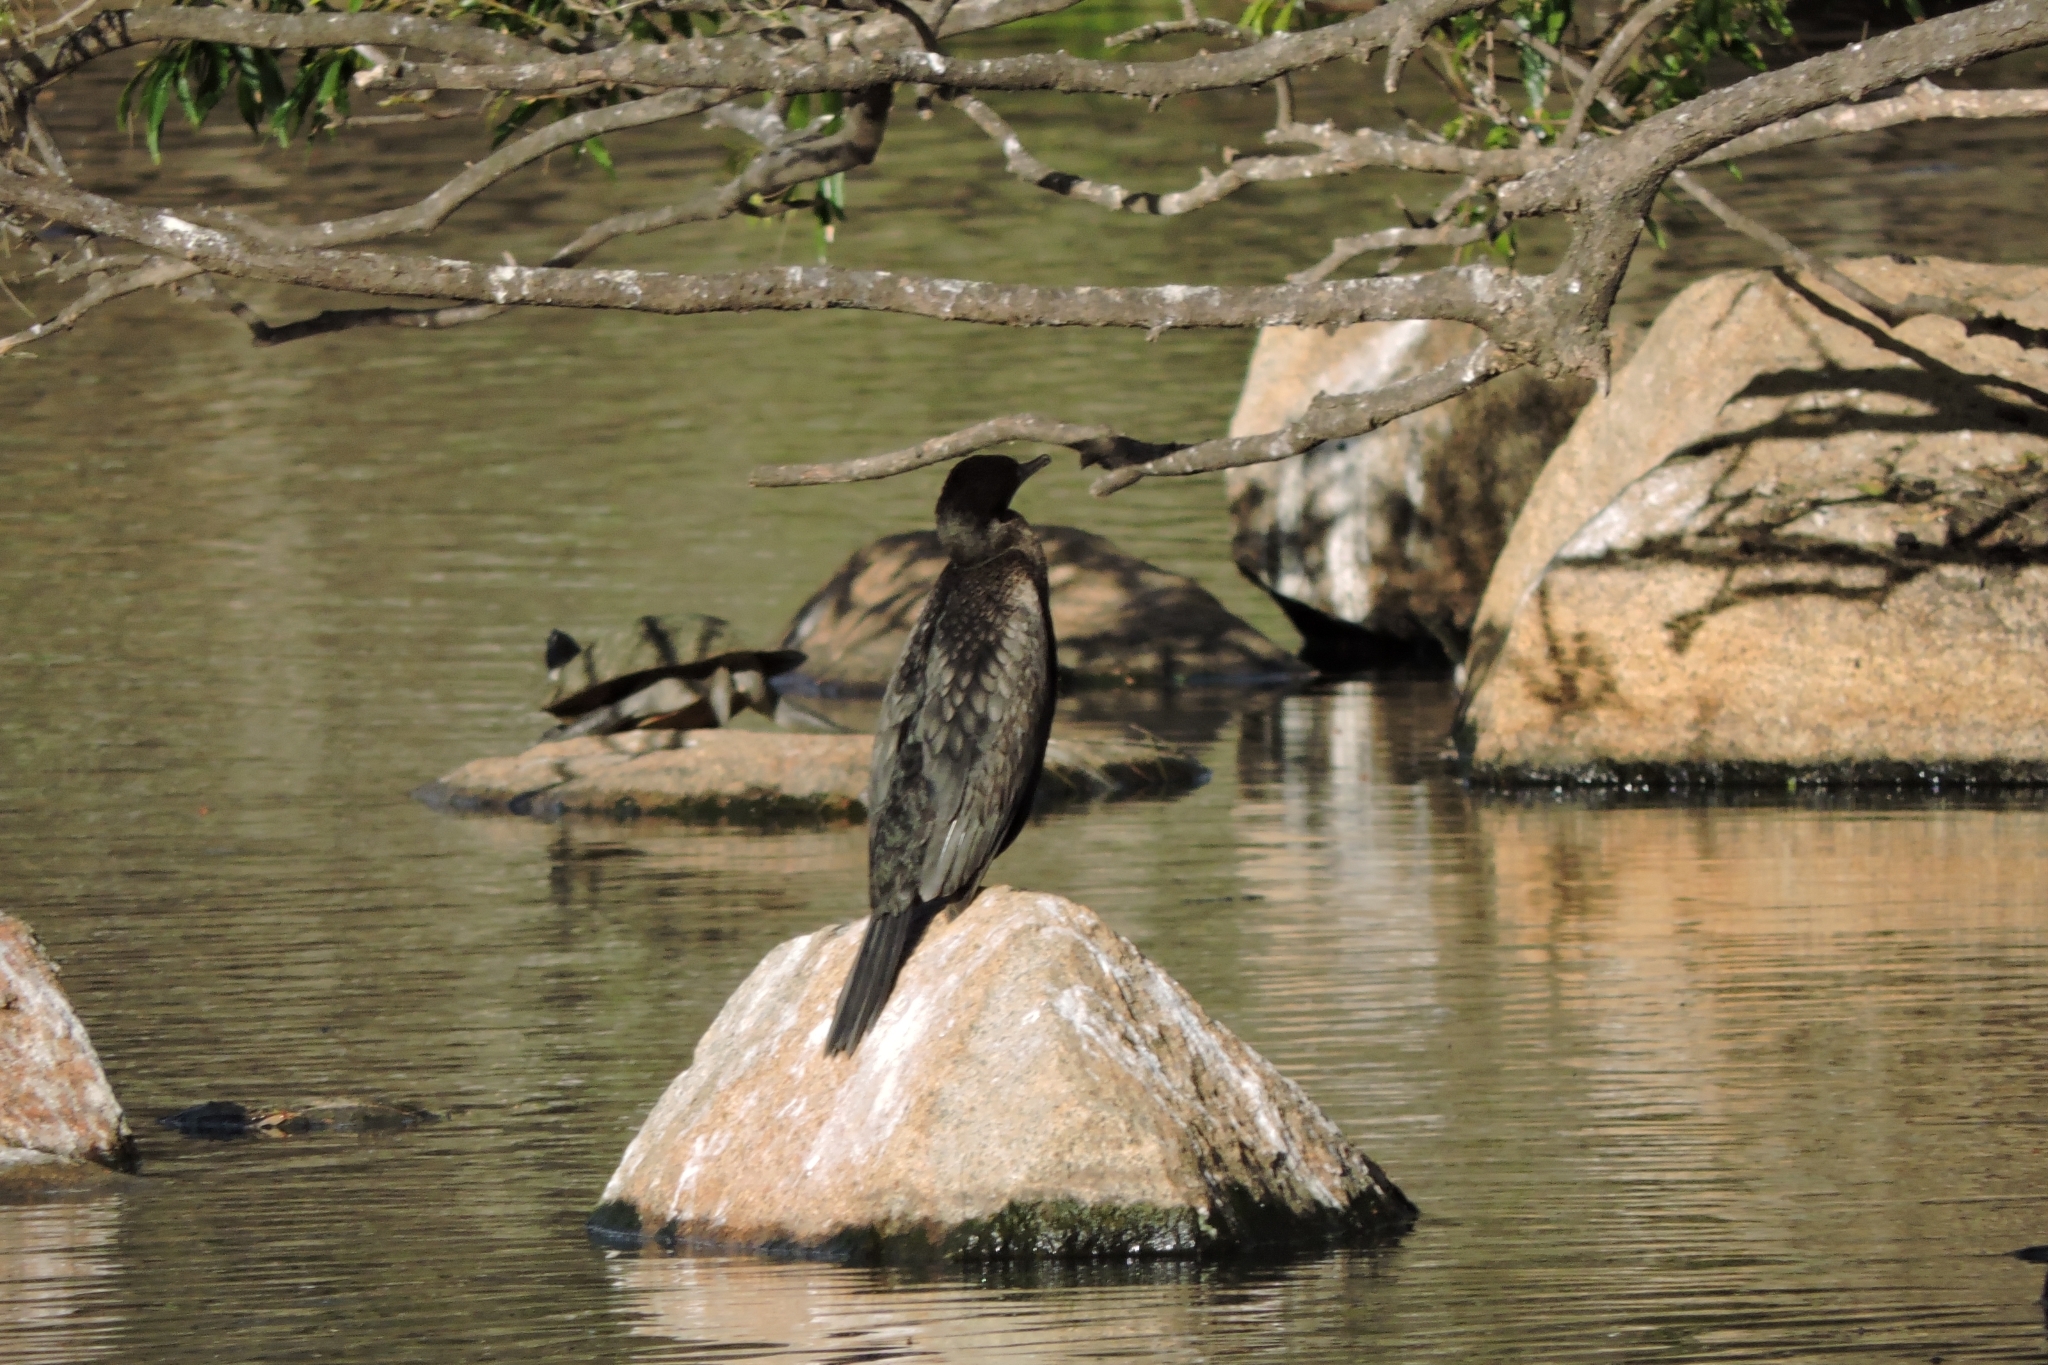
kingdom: Animalia
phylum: Chordata
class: Aves
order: Suliformes
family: Phalacrocoracidae
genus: Phalacrocorax
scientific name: Phalacrocorax sulcirostris
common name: Little black cormorant
